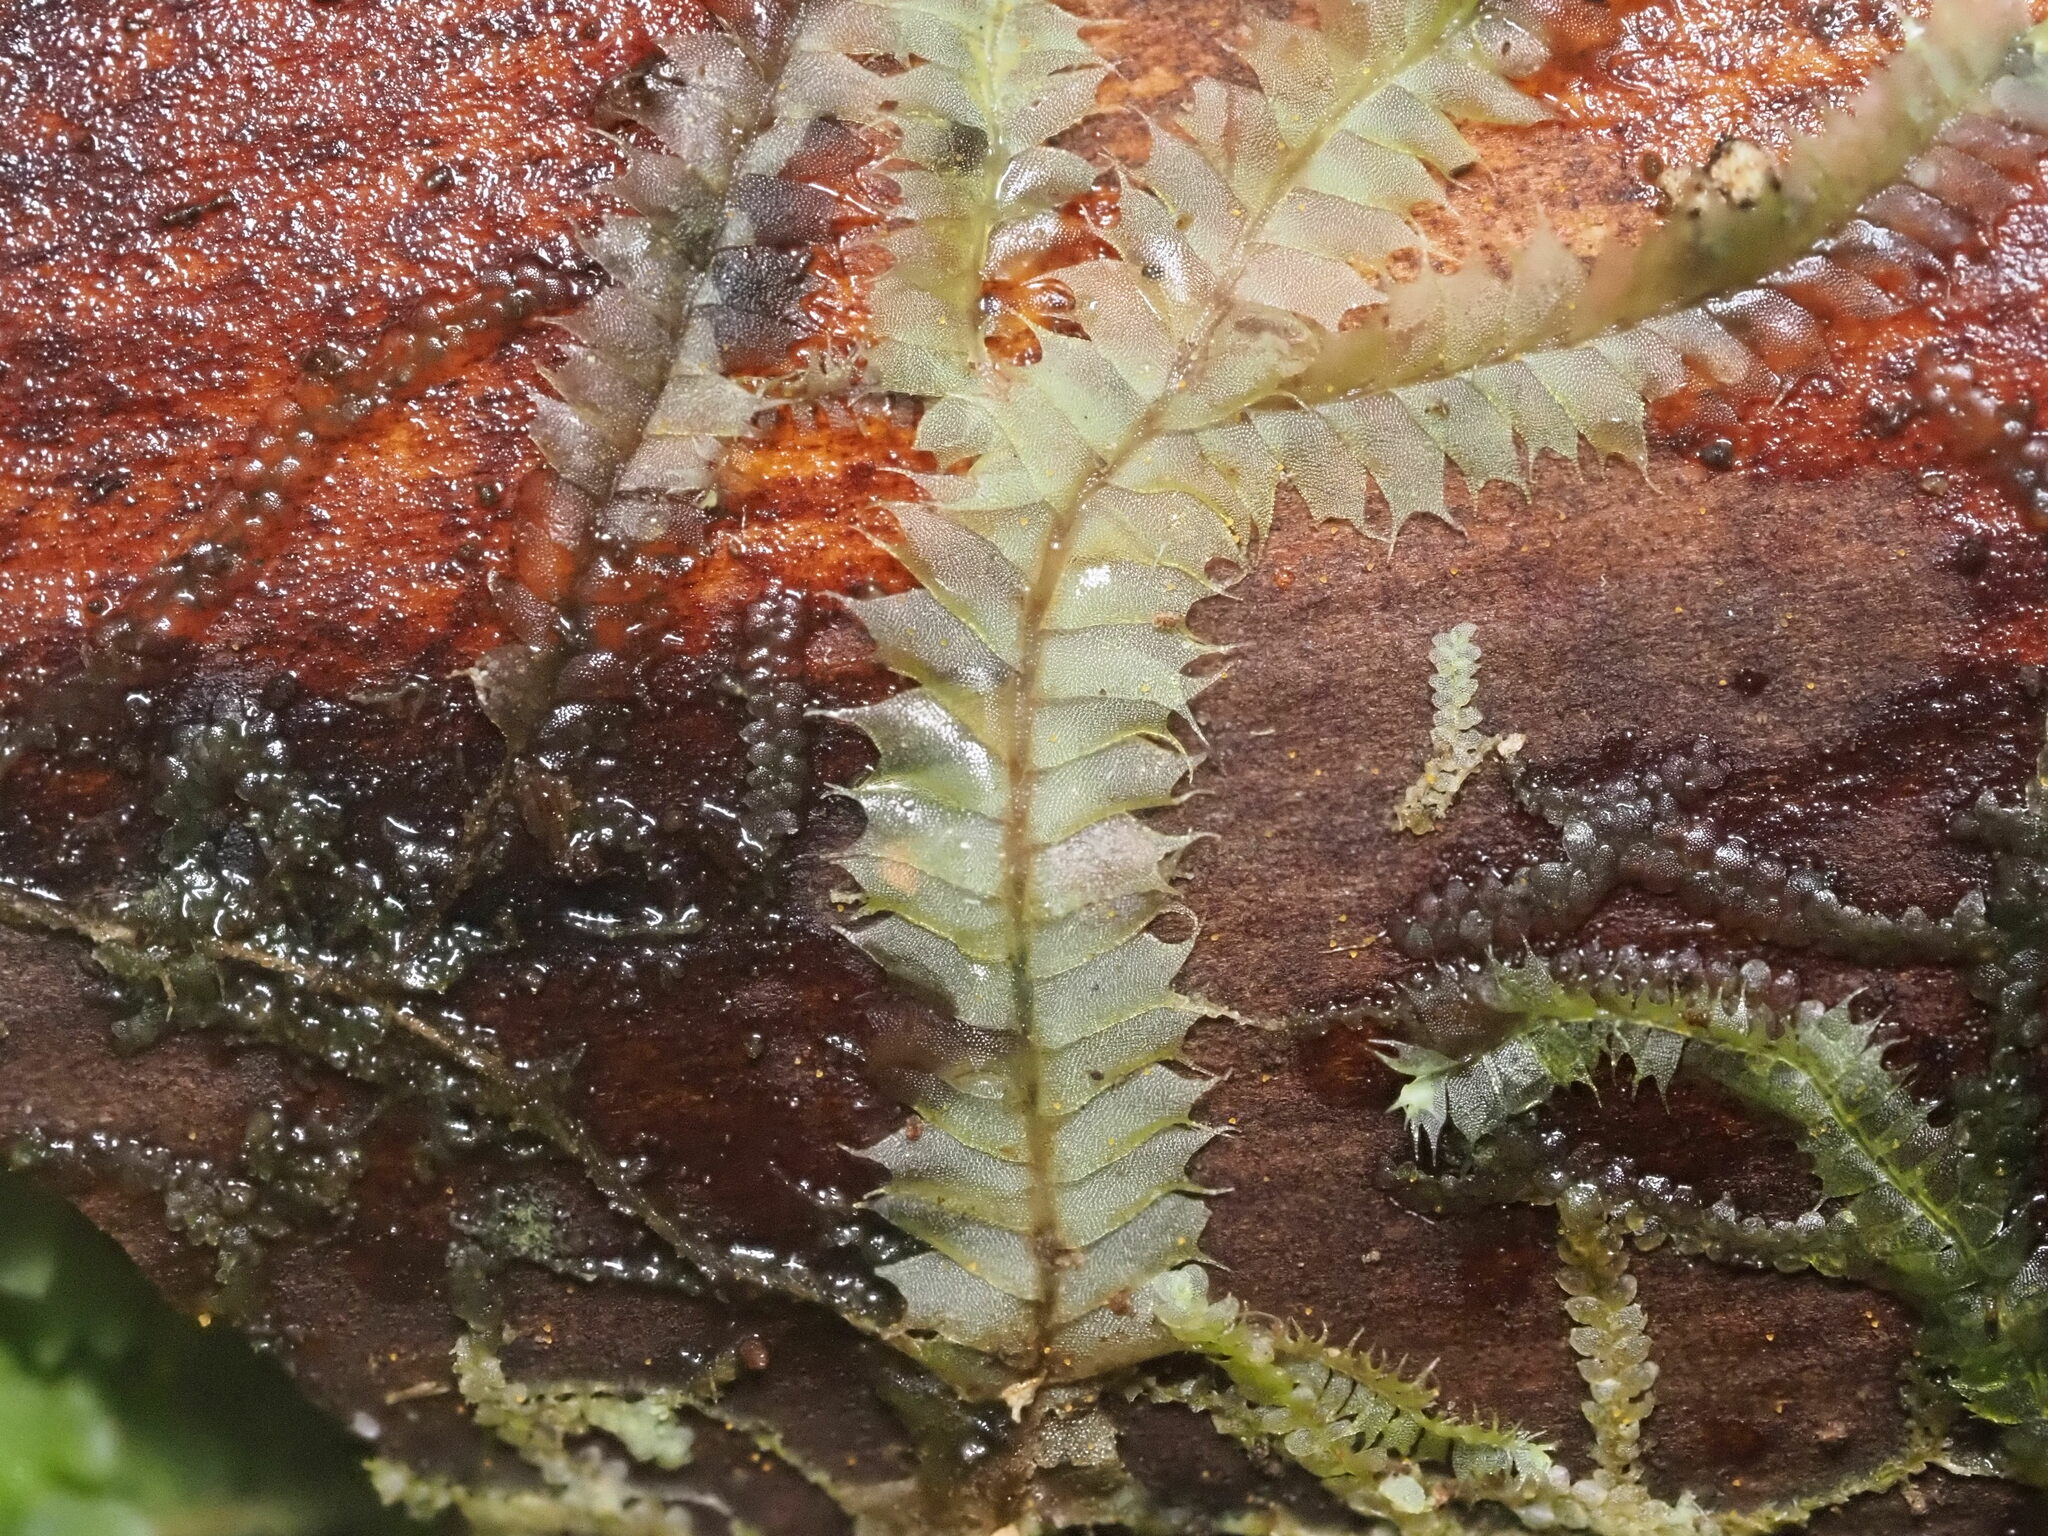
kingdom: Plantae
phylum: Marchantiophyta
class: Jungermanniopsida
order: Jungermanniales
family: Lophocoleaceae
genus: Lophocolea
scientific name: Lophocolea hawaica
